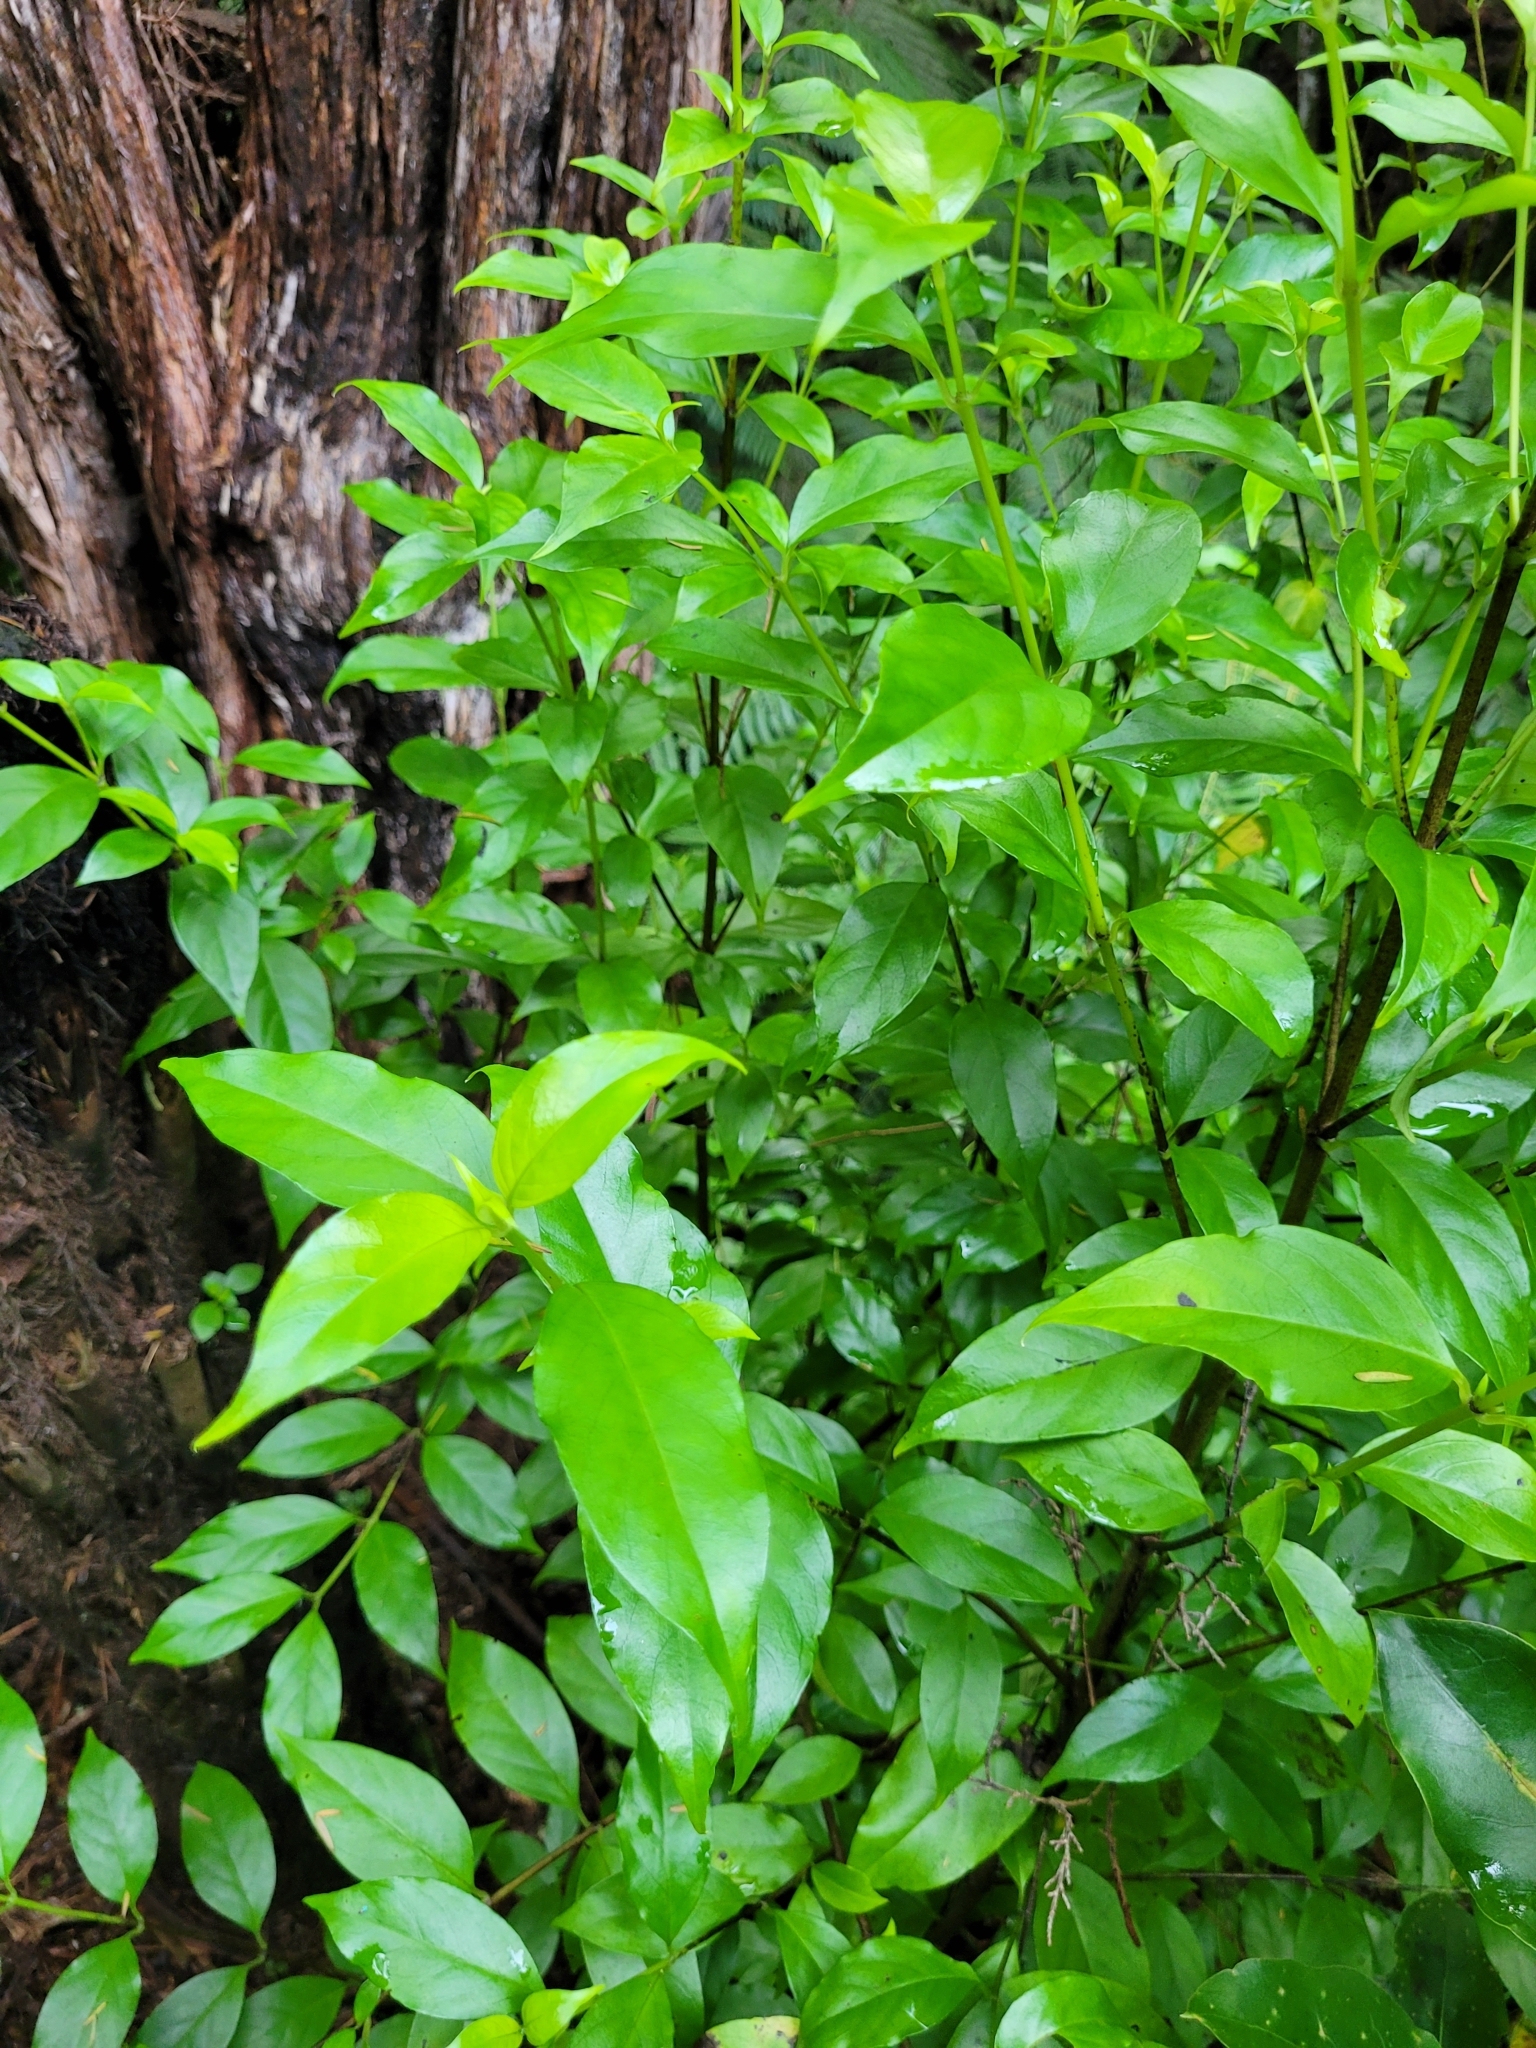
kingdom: Plantae
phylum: Tracheophyta
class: Magnoliopsida
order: Gentianales
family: Loganiaceae
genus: Geniostoma
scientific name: Geniostoma ligustrifolium
